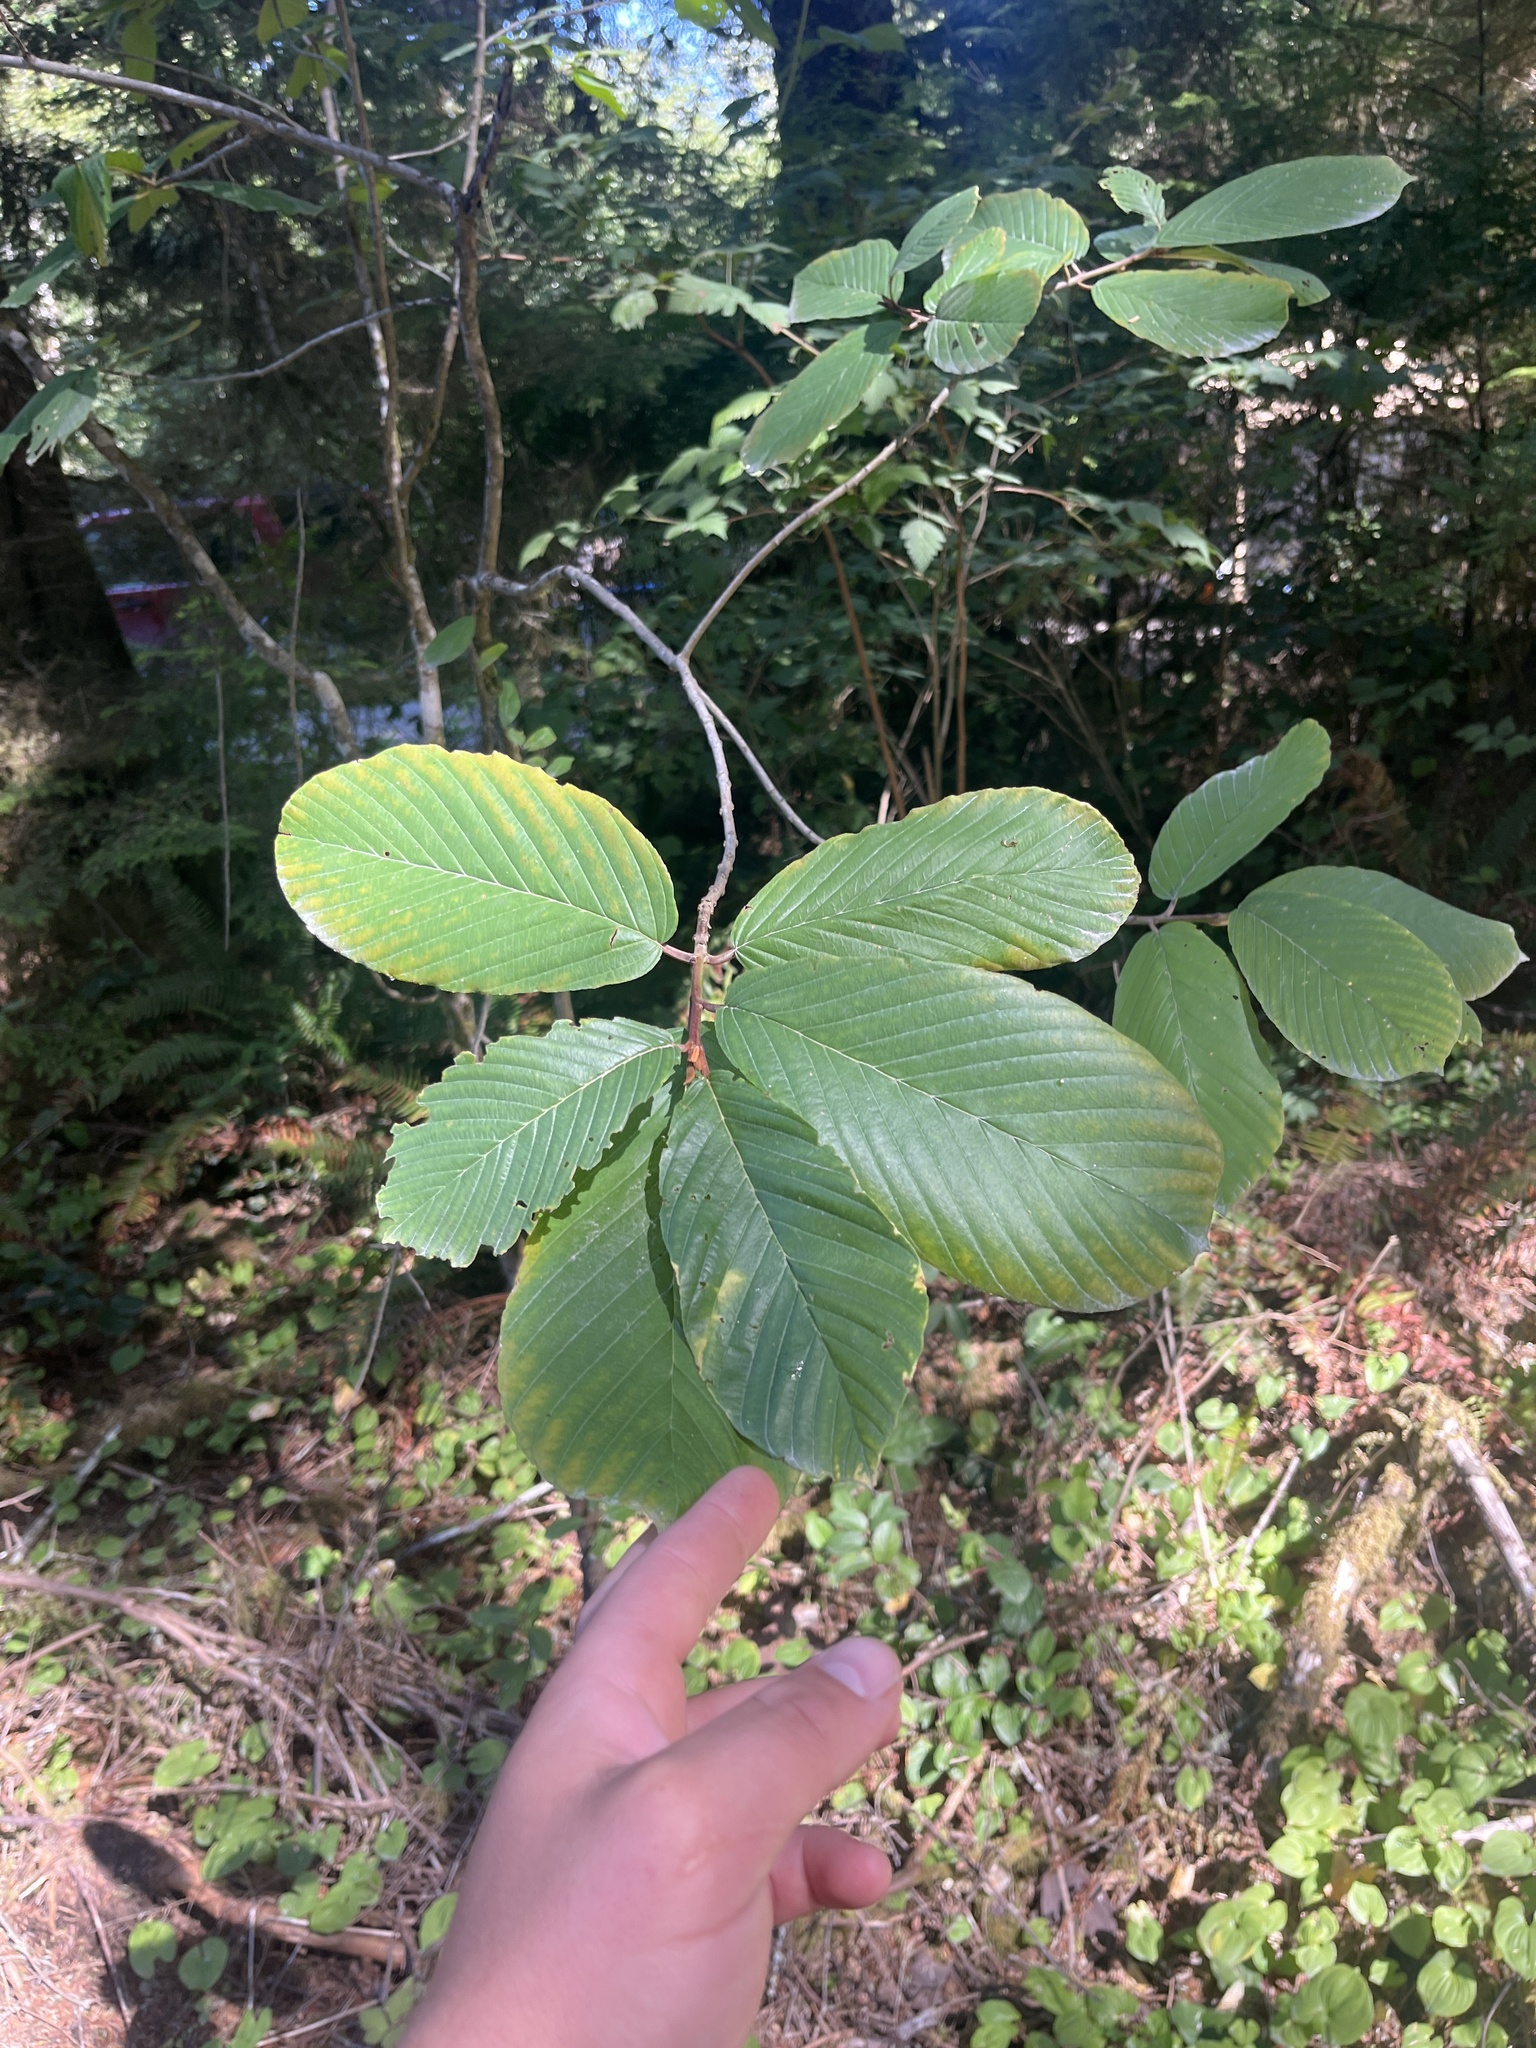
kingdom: Plantae
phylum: Tracheophyta
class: Magnoliopsida
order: Rosales
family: Rhamnaceae
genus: Frangula
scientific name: Frangula purshiana
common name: Cascara buckthorn
